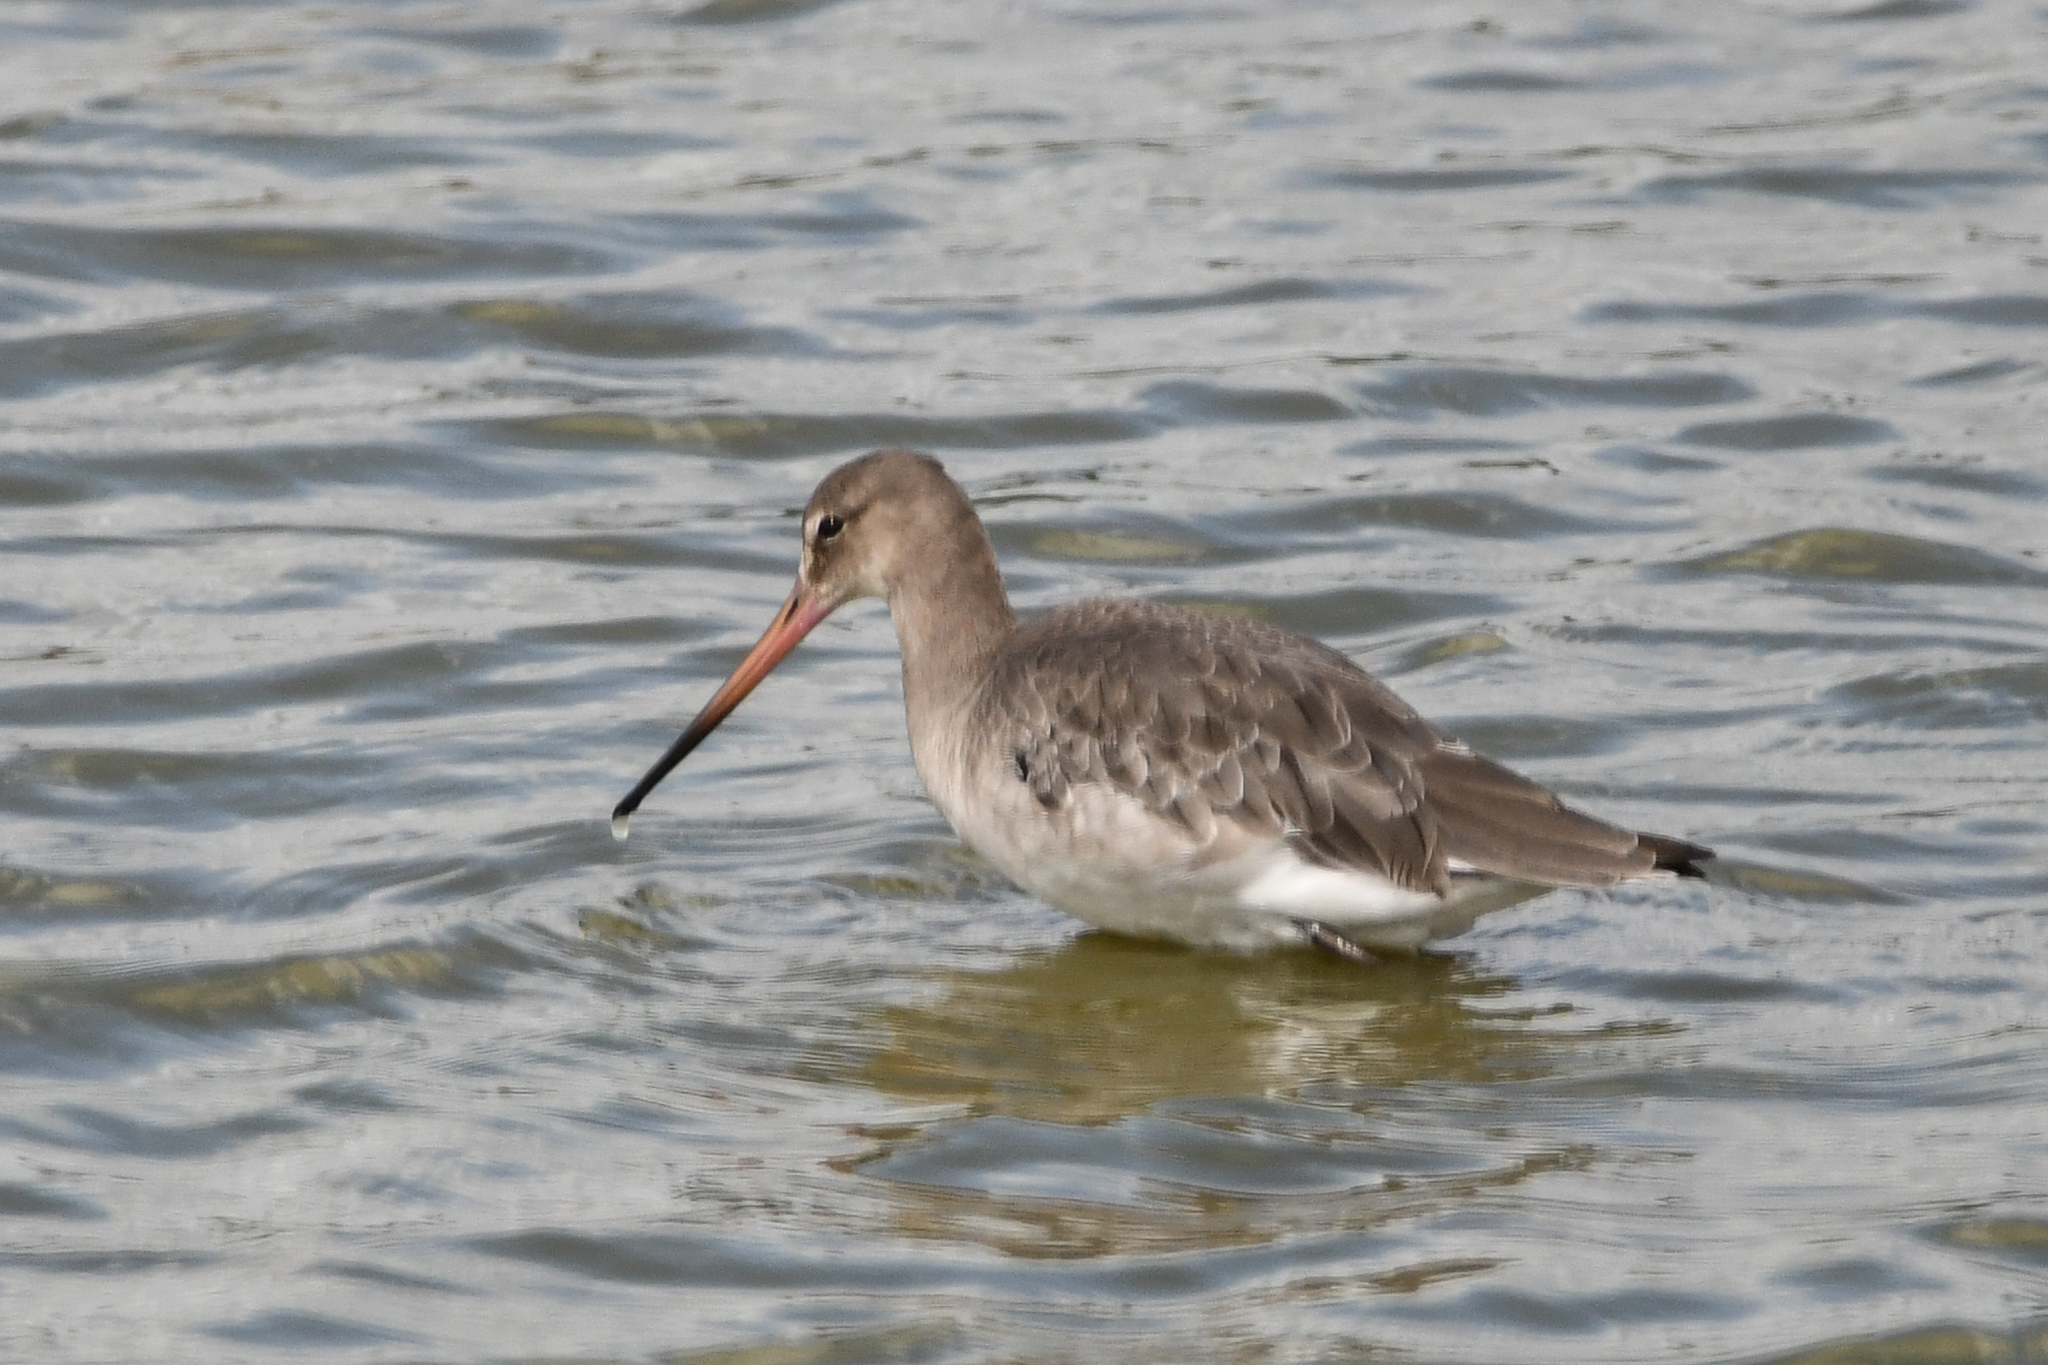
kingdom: Animalia
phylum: Chordata
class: Aves
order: Charadriiformes
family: Scolopacidae
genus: Limosa
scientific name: Limosa limosa
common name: Black-tailed godwit
